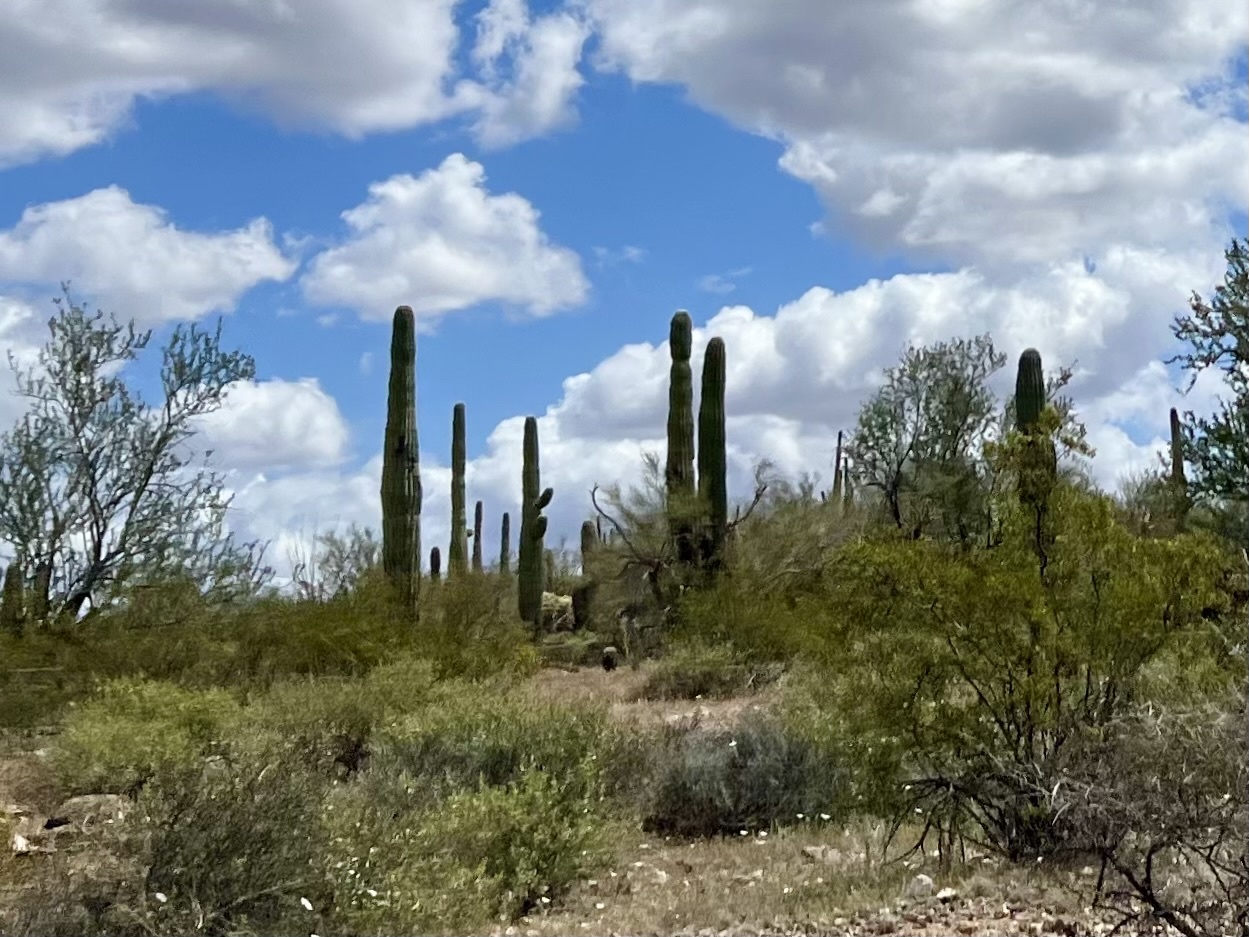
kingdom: Plantae
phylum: Tracheophyta
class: Magnoliopsida
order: Caryophyllales
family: Cactaceae
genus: Carnegiea
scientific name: Carnegiea gigantea
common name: Saguaro
